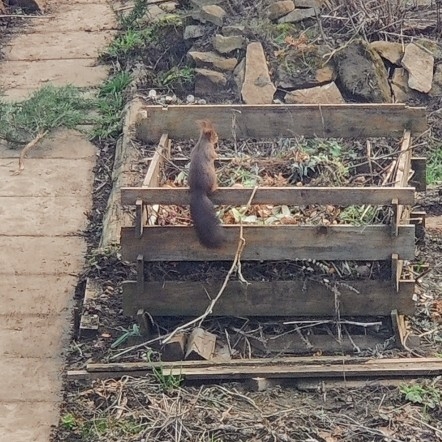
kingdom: Animalia
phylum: Chordata
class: Mammalia
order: Rodentia
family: Sciuridae
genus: Sciurus
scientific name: Sciurus vulgaris
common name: Eurasian red squirrel
